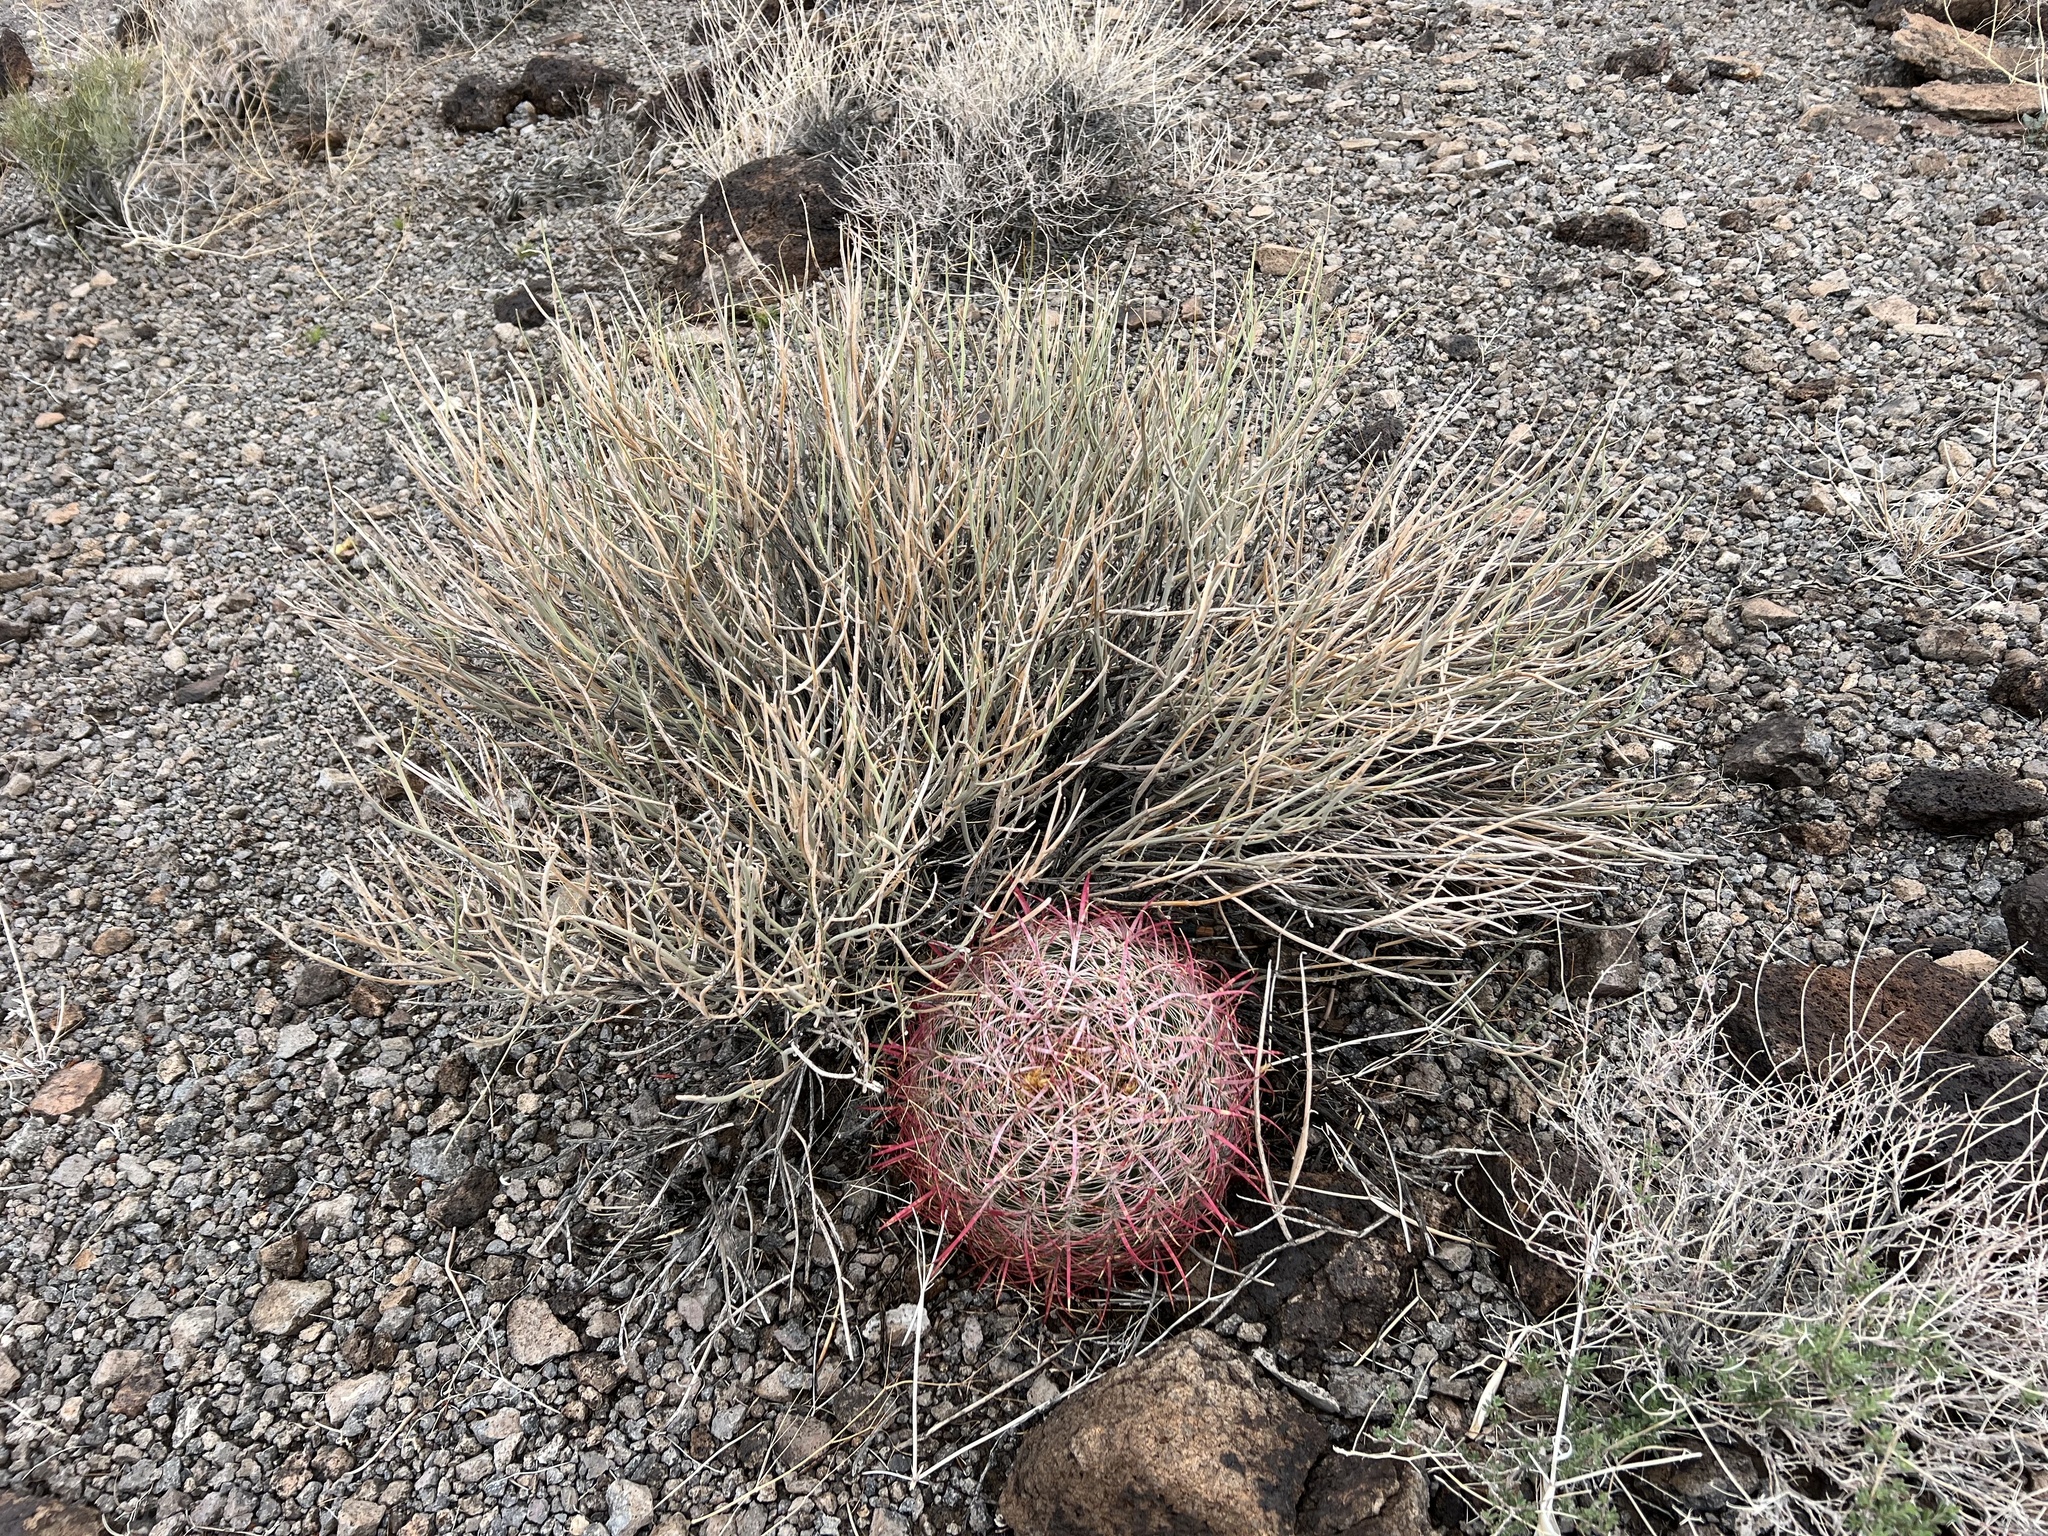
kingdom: Plantae
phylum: Tracheophyta
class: Magnoliopsida
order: Fabales
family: Fabaceae
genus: Senna
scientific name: Senna armata
